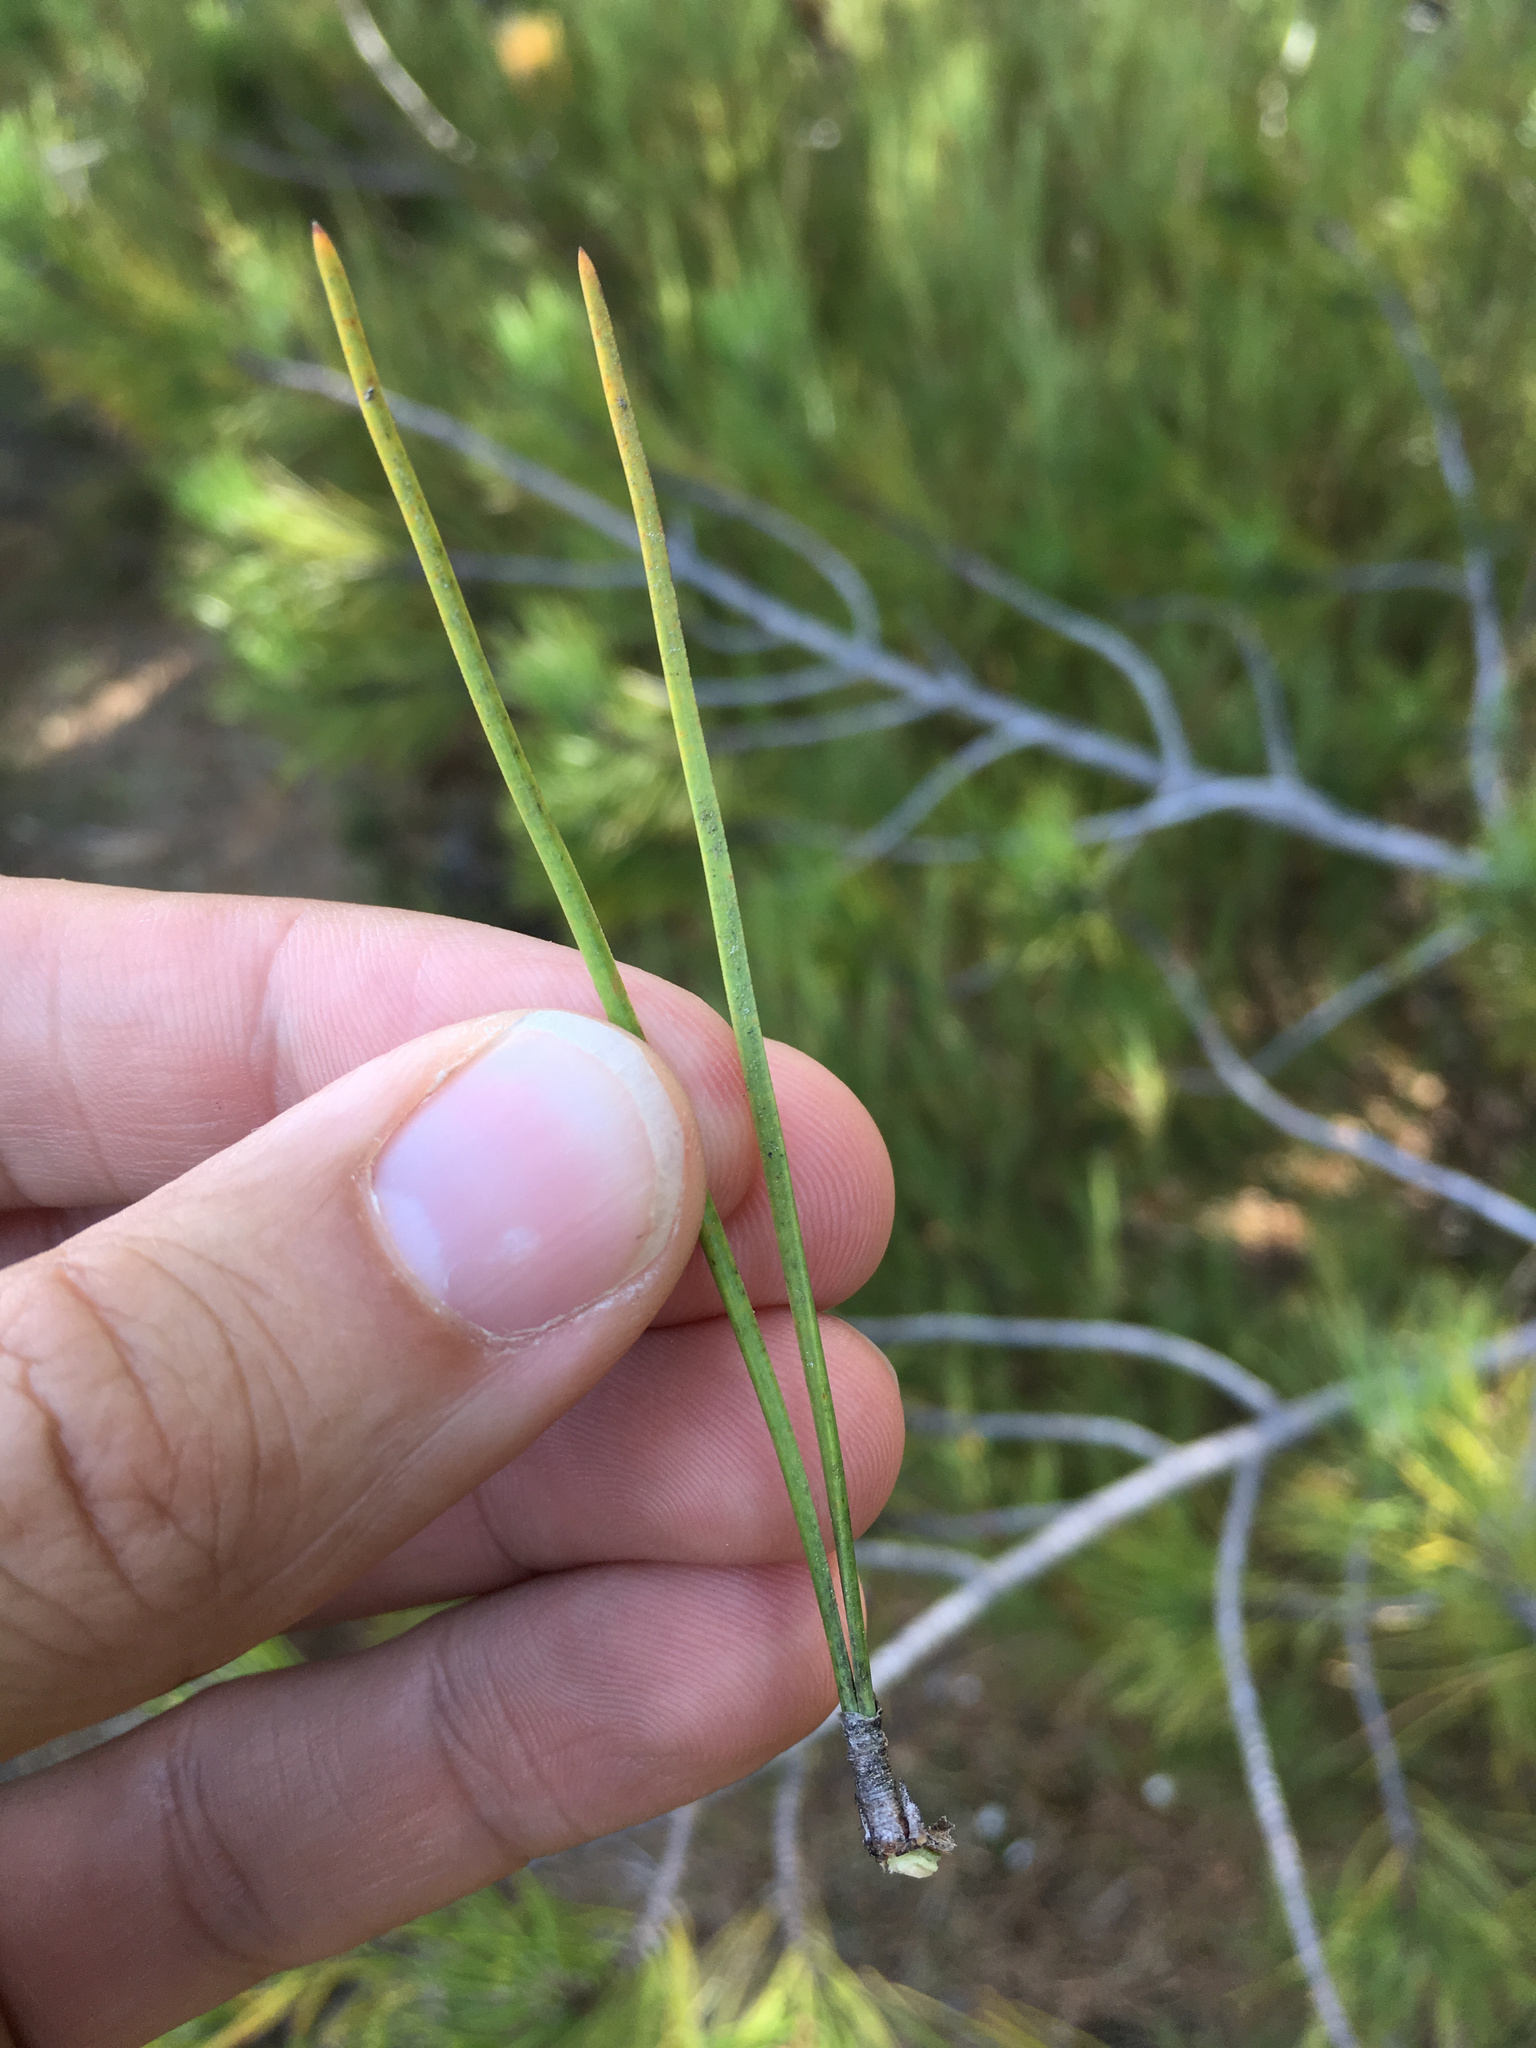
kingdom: Plantae
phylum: Tracheophyta
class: Pinopsida
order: Pinales
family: Pinaceae
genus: Pinus
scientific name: Pinus nigra
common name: Austrian pine
